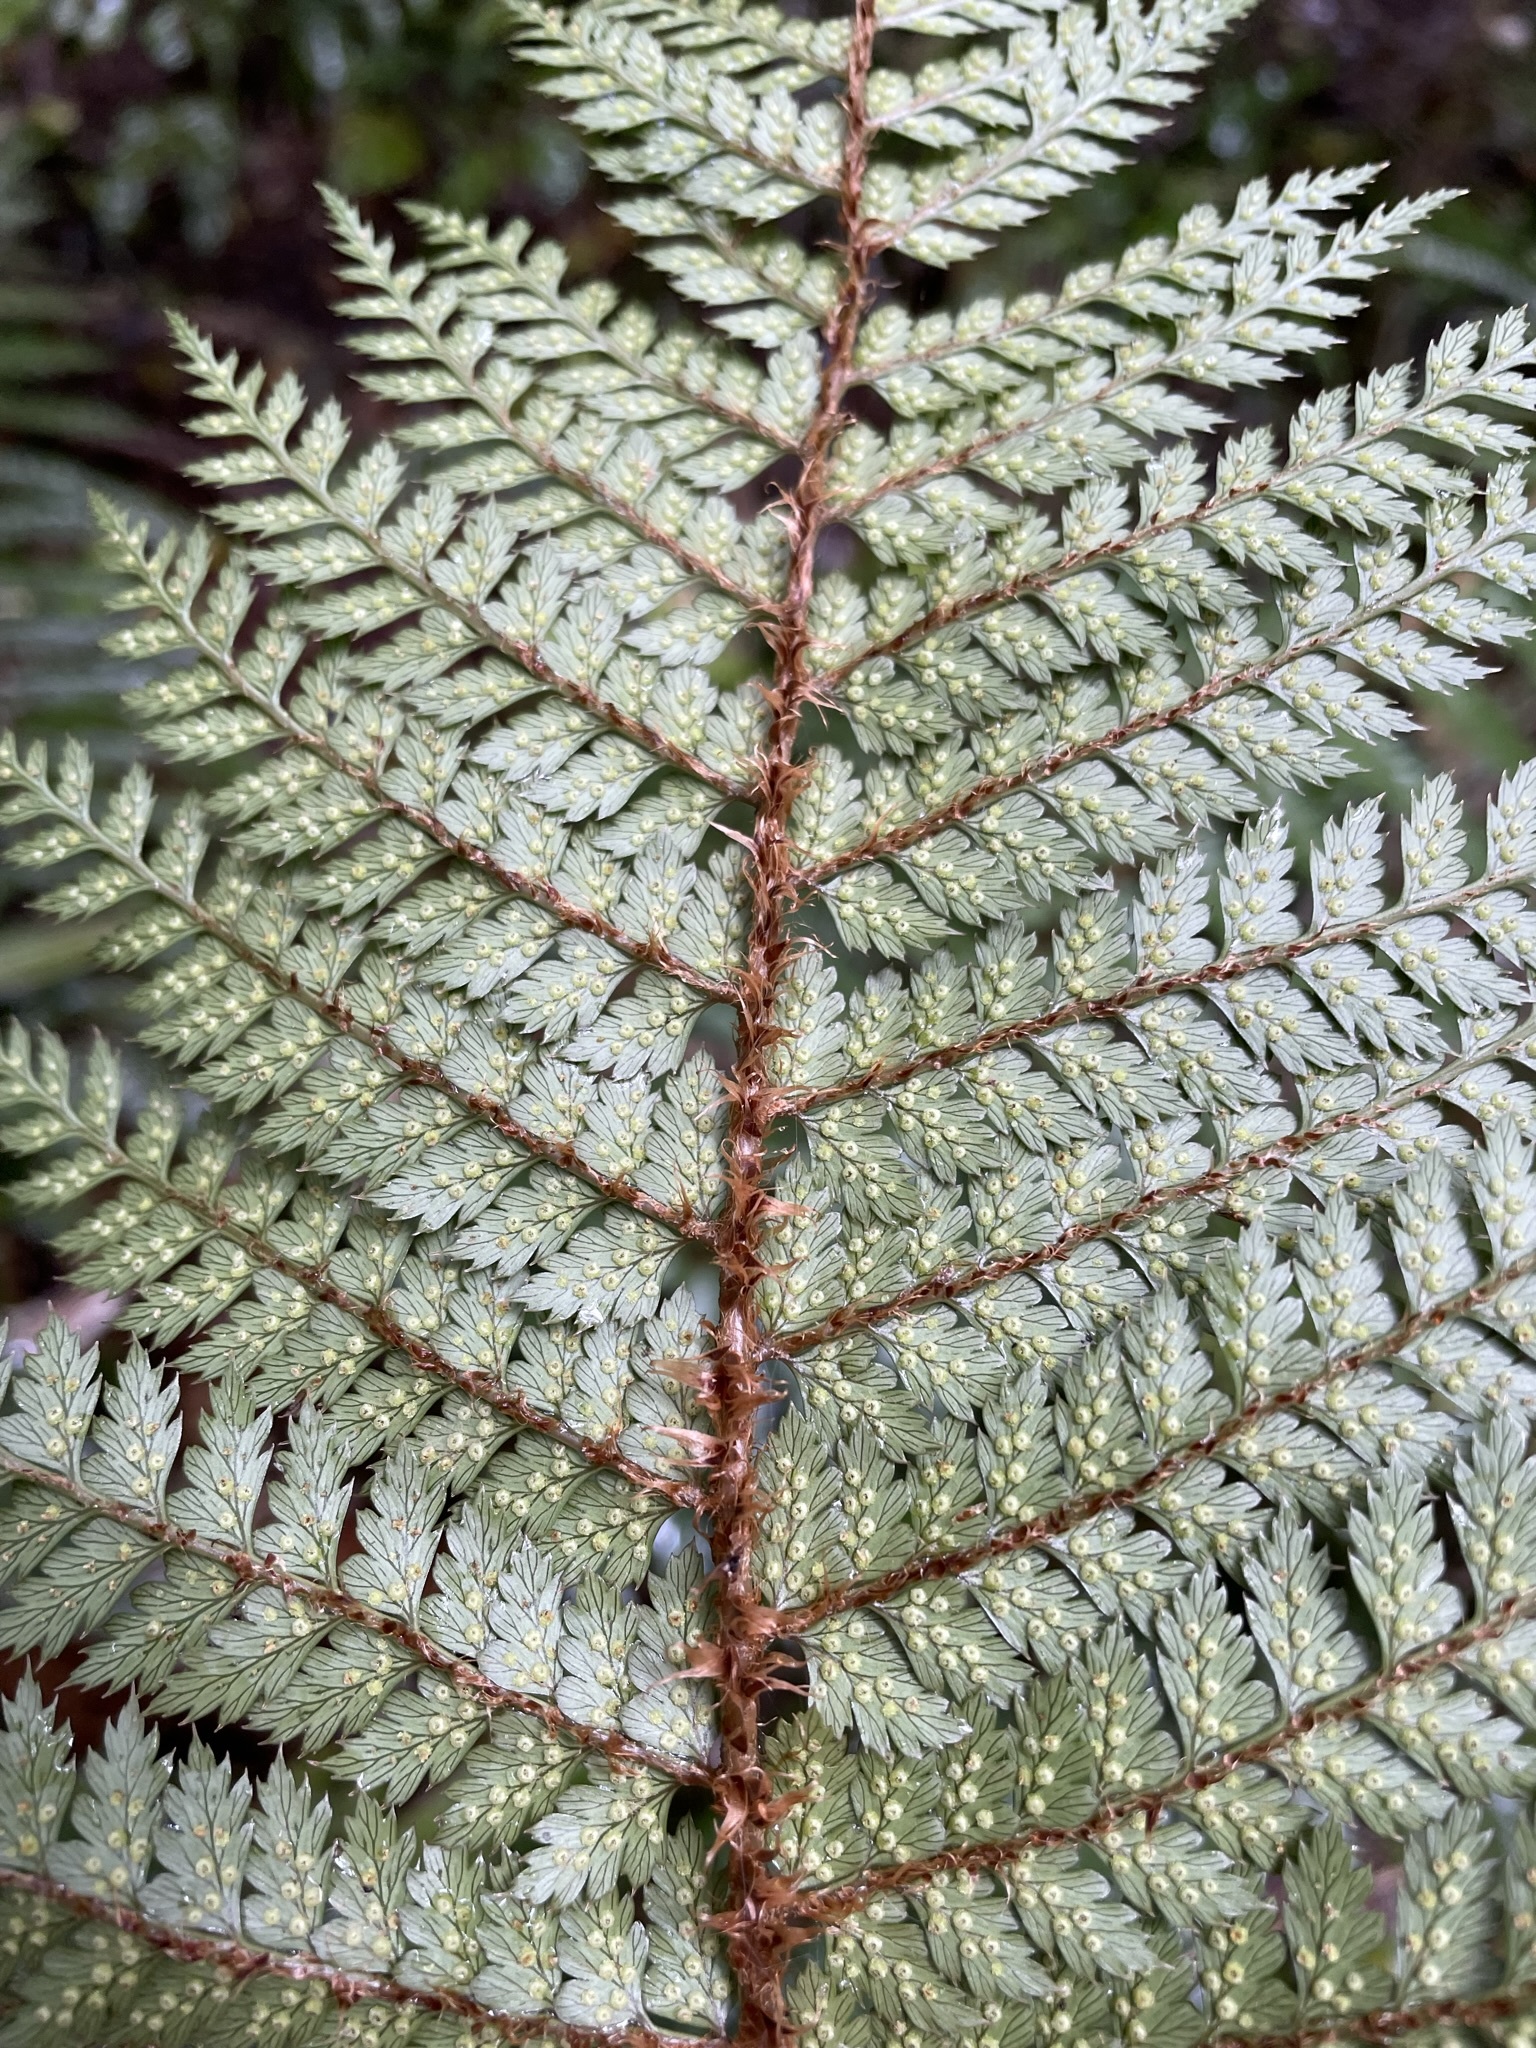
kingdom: Plantae
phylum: Tracheophyta
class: Polypodiopsida
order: Polypodiales
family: Dryopteridaceae
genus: Polystichum
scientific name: Polystichum vestitum
